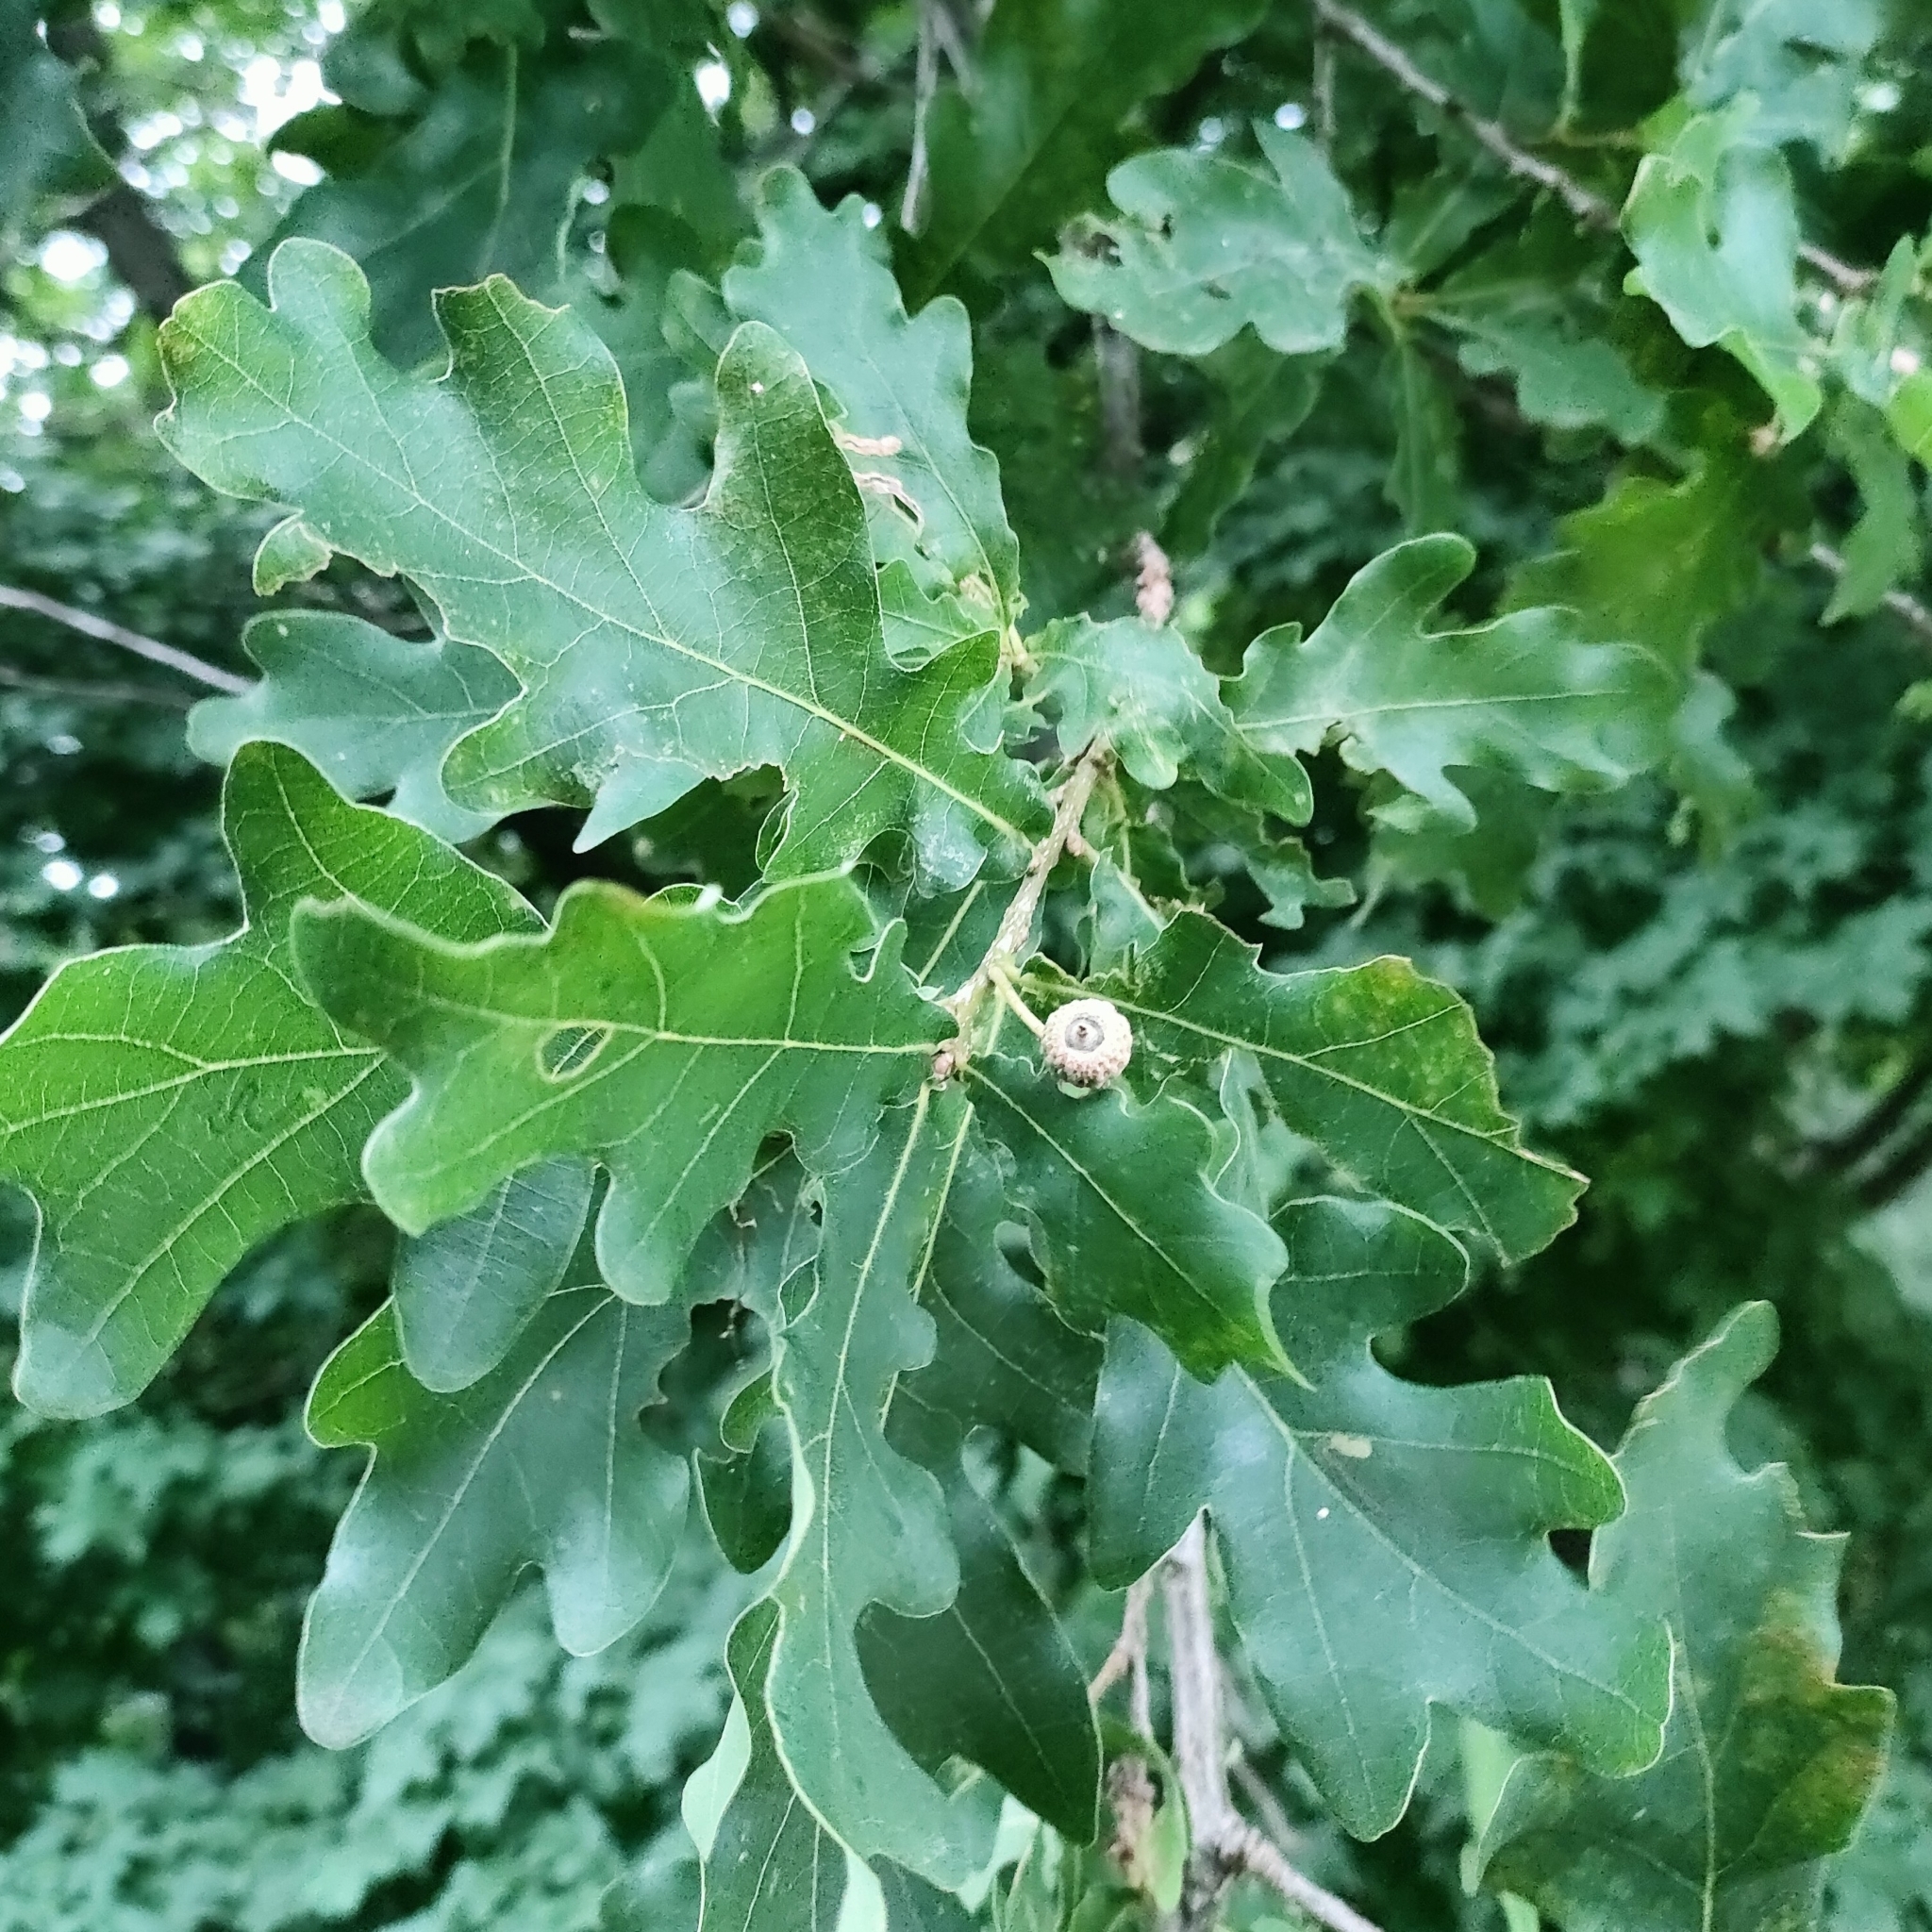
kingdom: Plantae
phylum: Tracheophyta
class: Magnoliopsida
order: Fagales
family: Fagaceae
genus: Quercus
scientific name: Quercus robur
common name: Pedunculate oak
